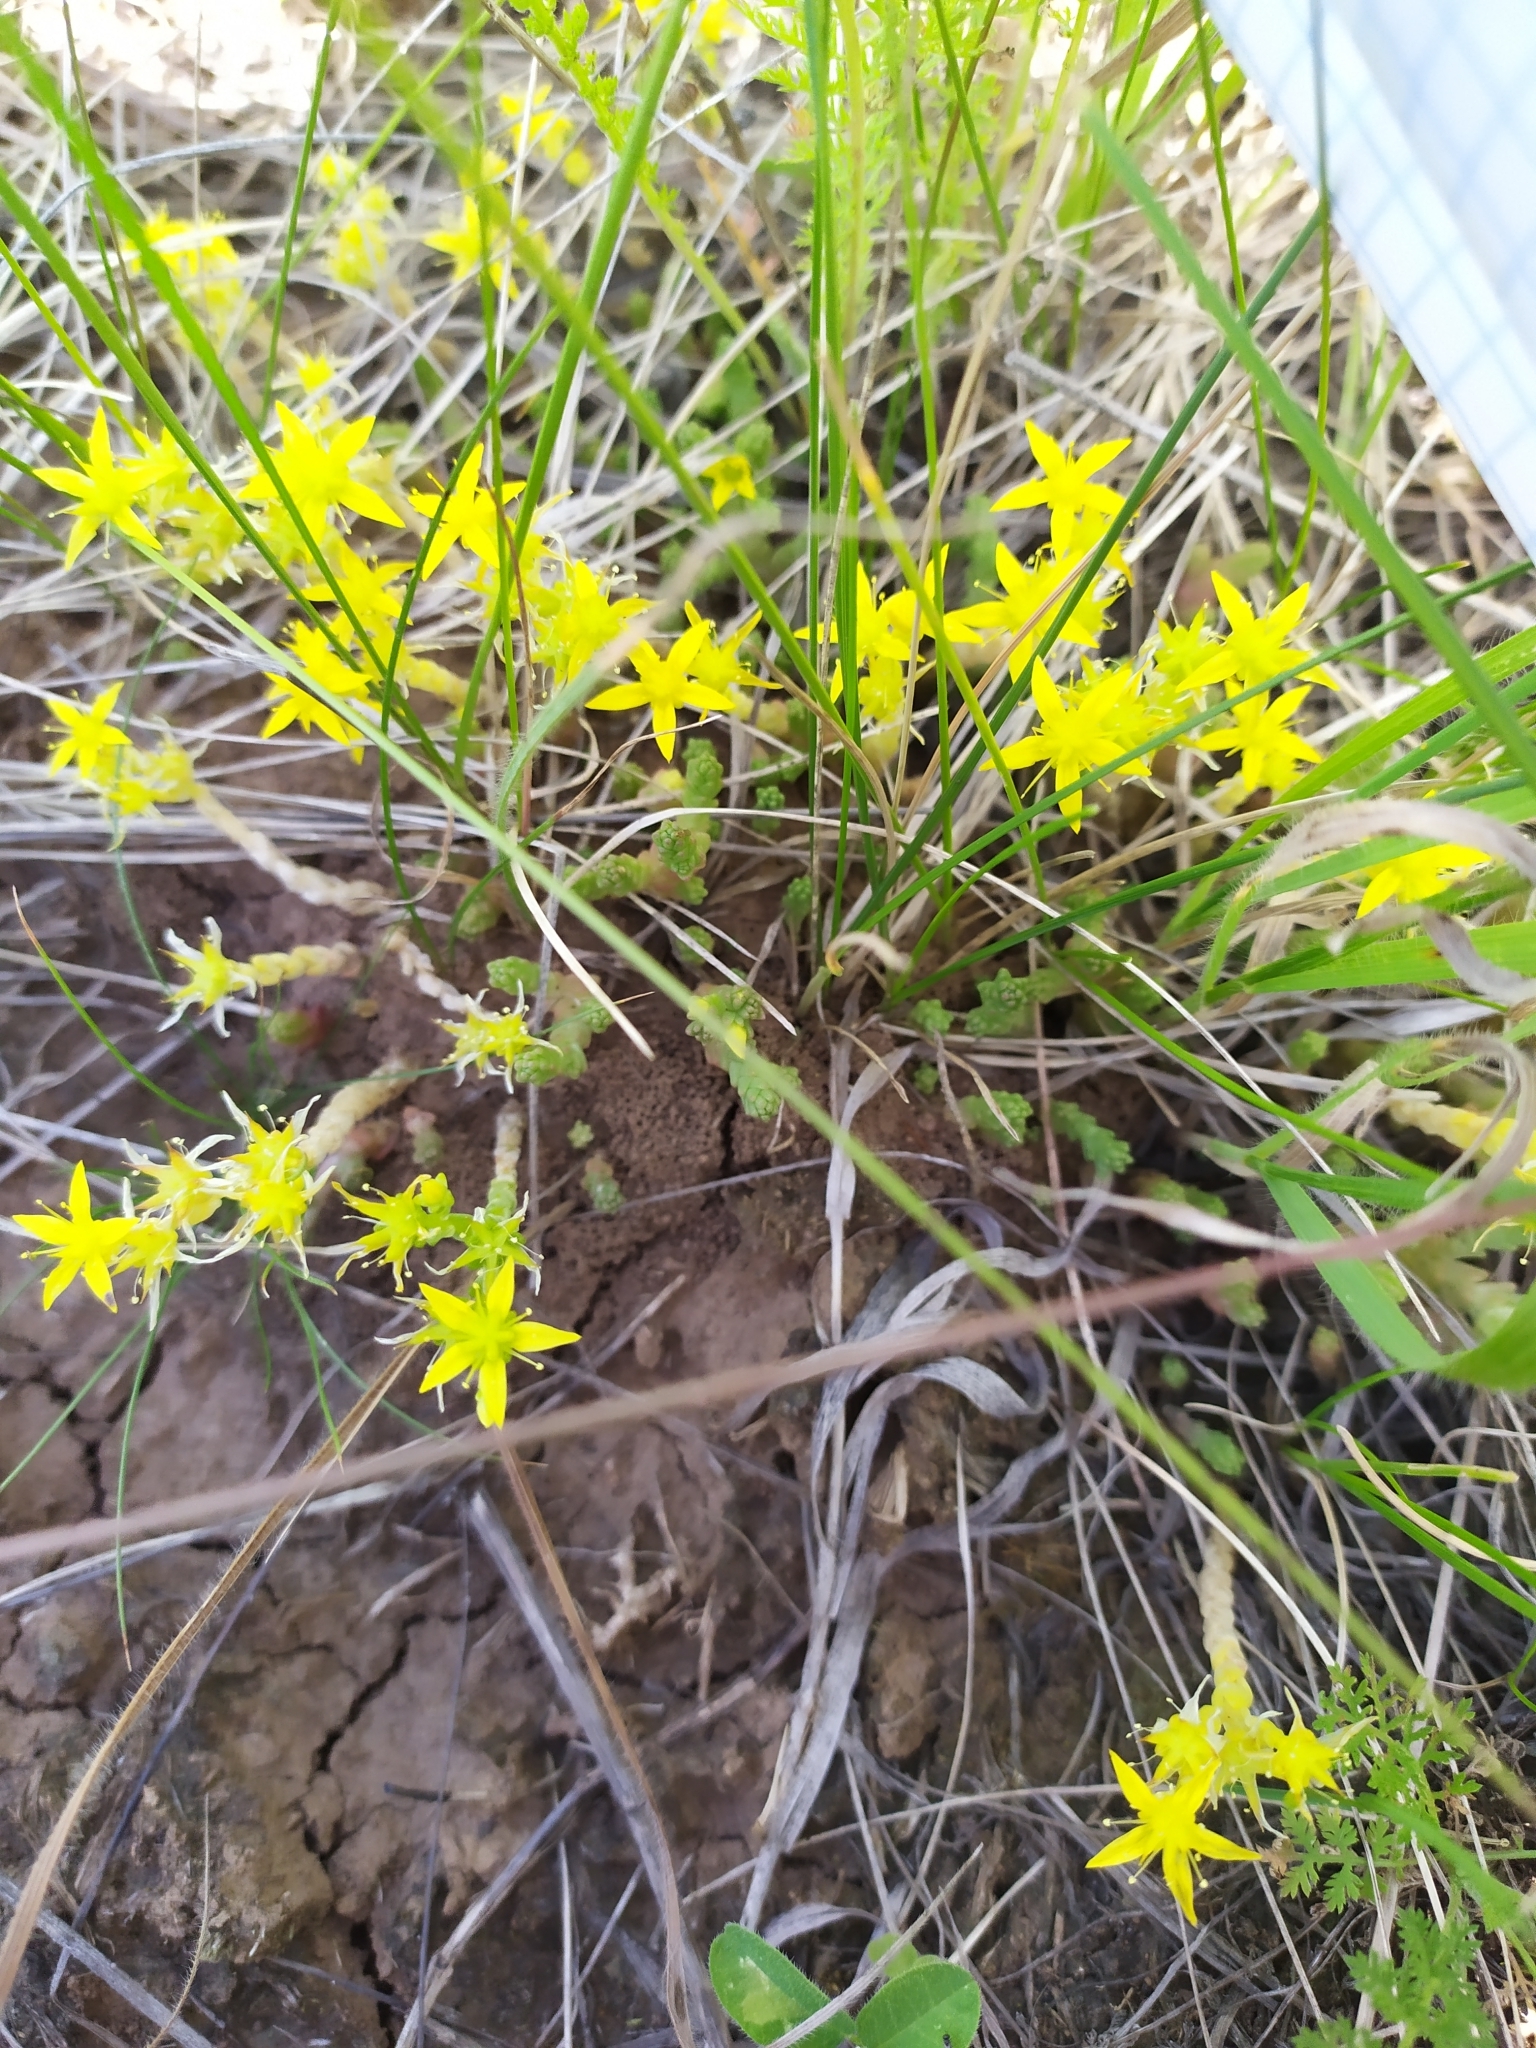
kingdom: Plantae
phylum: Tracheophyta
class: Magnoliopsida
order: Saxifragales
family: Crassulaceae
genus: Sedum
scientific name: Sedum acre
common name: Biting stonecrop
